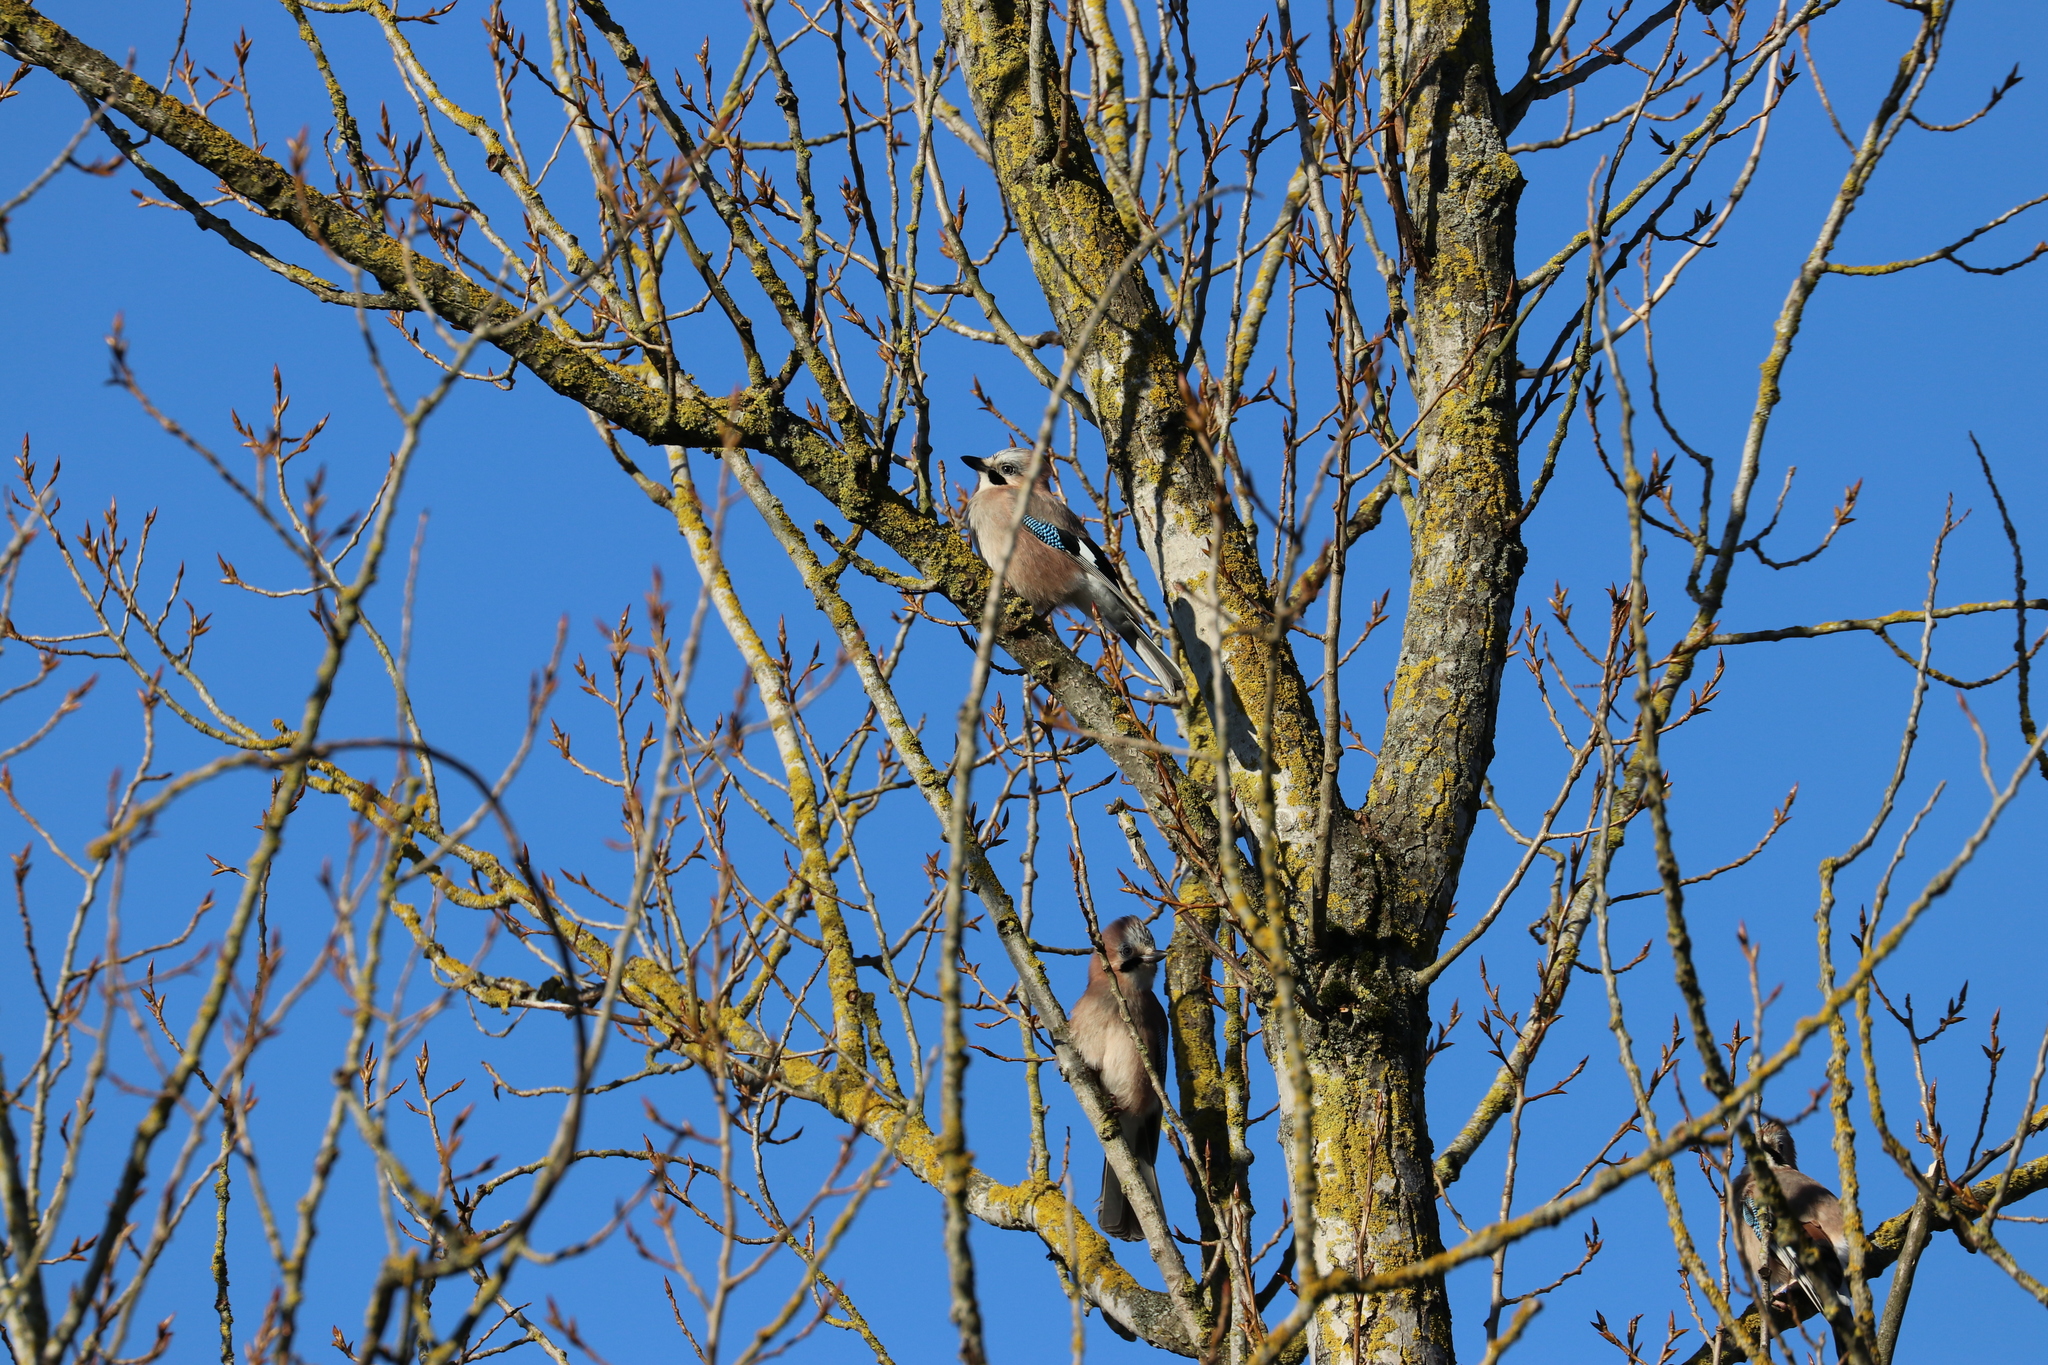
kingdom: Animalia
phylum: Chordata
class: Aves
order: Passeriformes
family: Corvidae
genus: Garrulus
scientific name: Garrulus glandarius
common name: Eurasian jay
